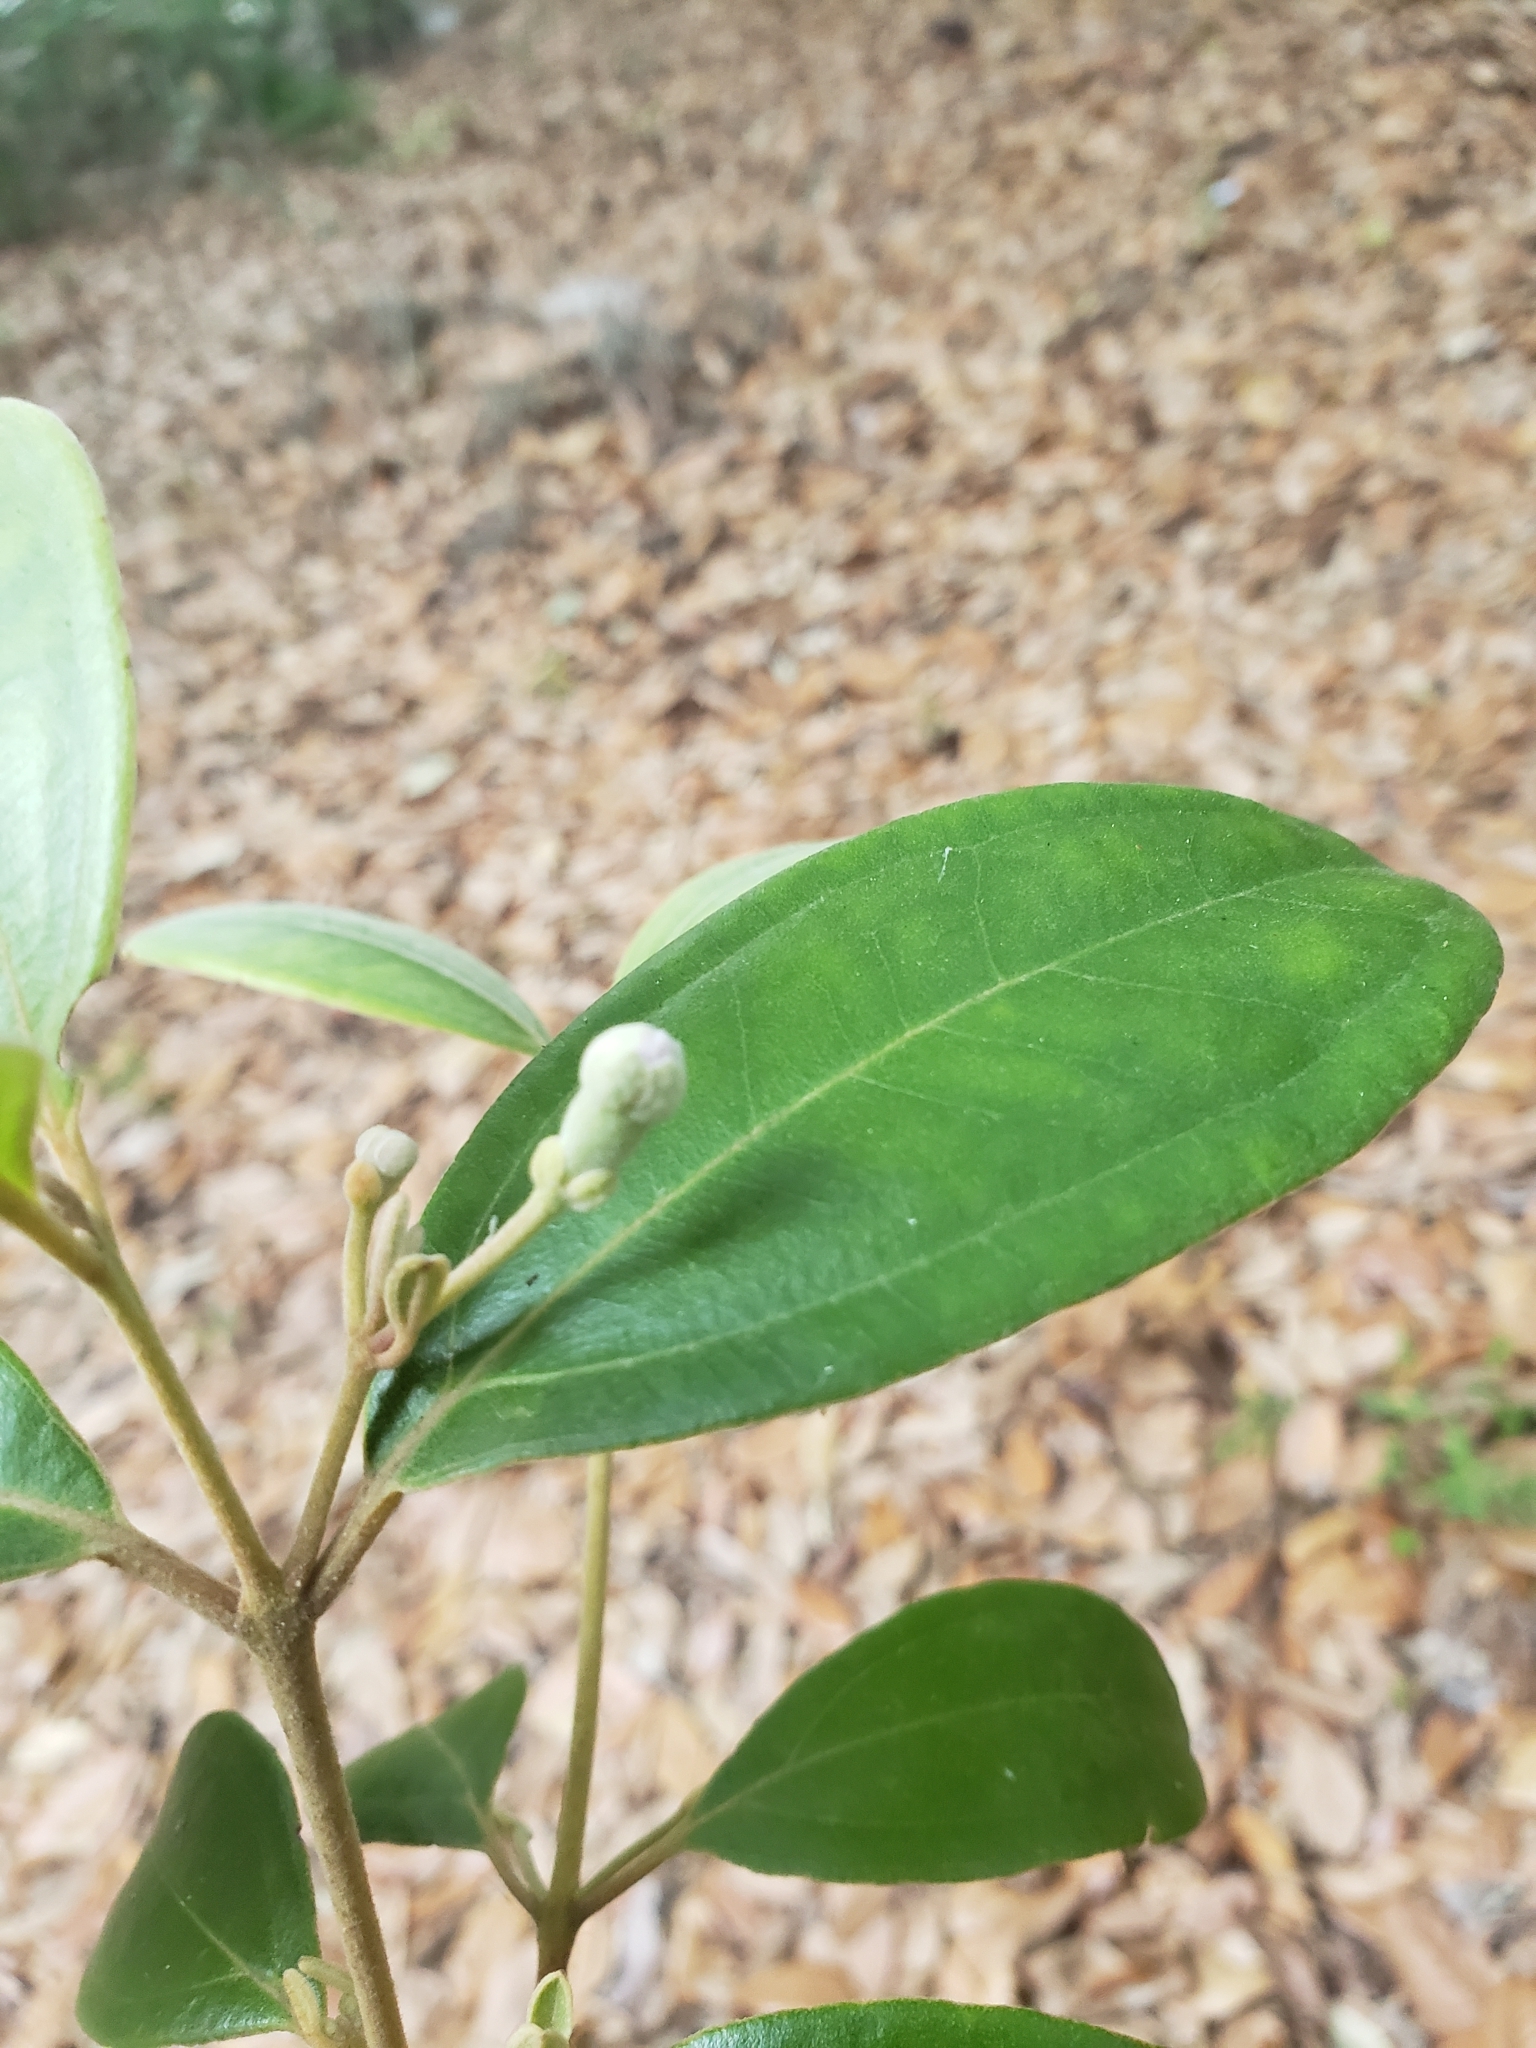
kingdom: Plantae
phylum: Tracheophyta
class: Magnoliopsida
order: Myrtales
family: Myrtaceae
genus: Rhodomyrtus
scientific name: Rhodomyrtus tomentosa
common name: Rose myrtle
